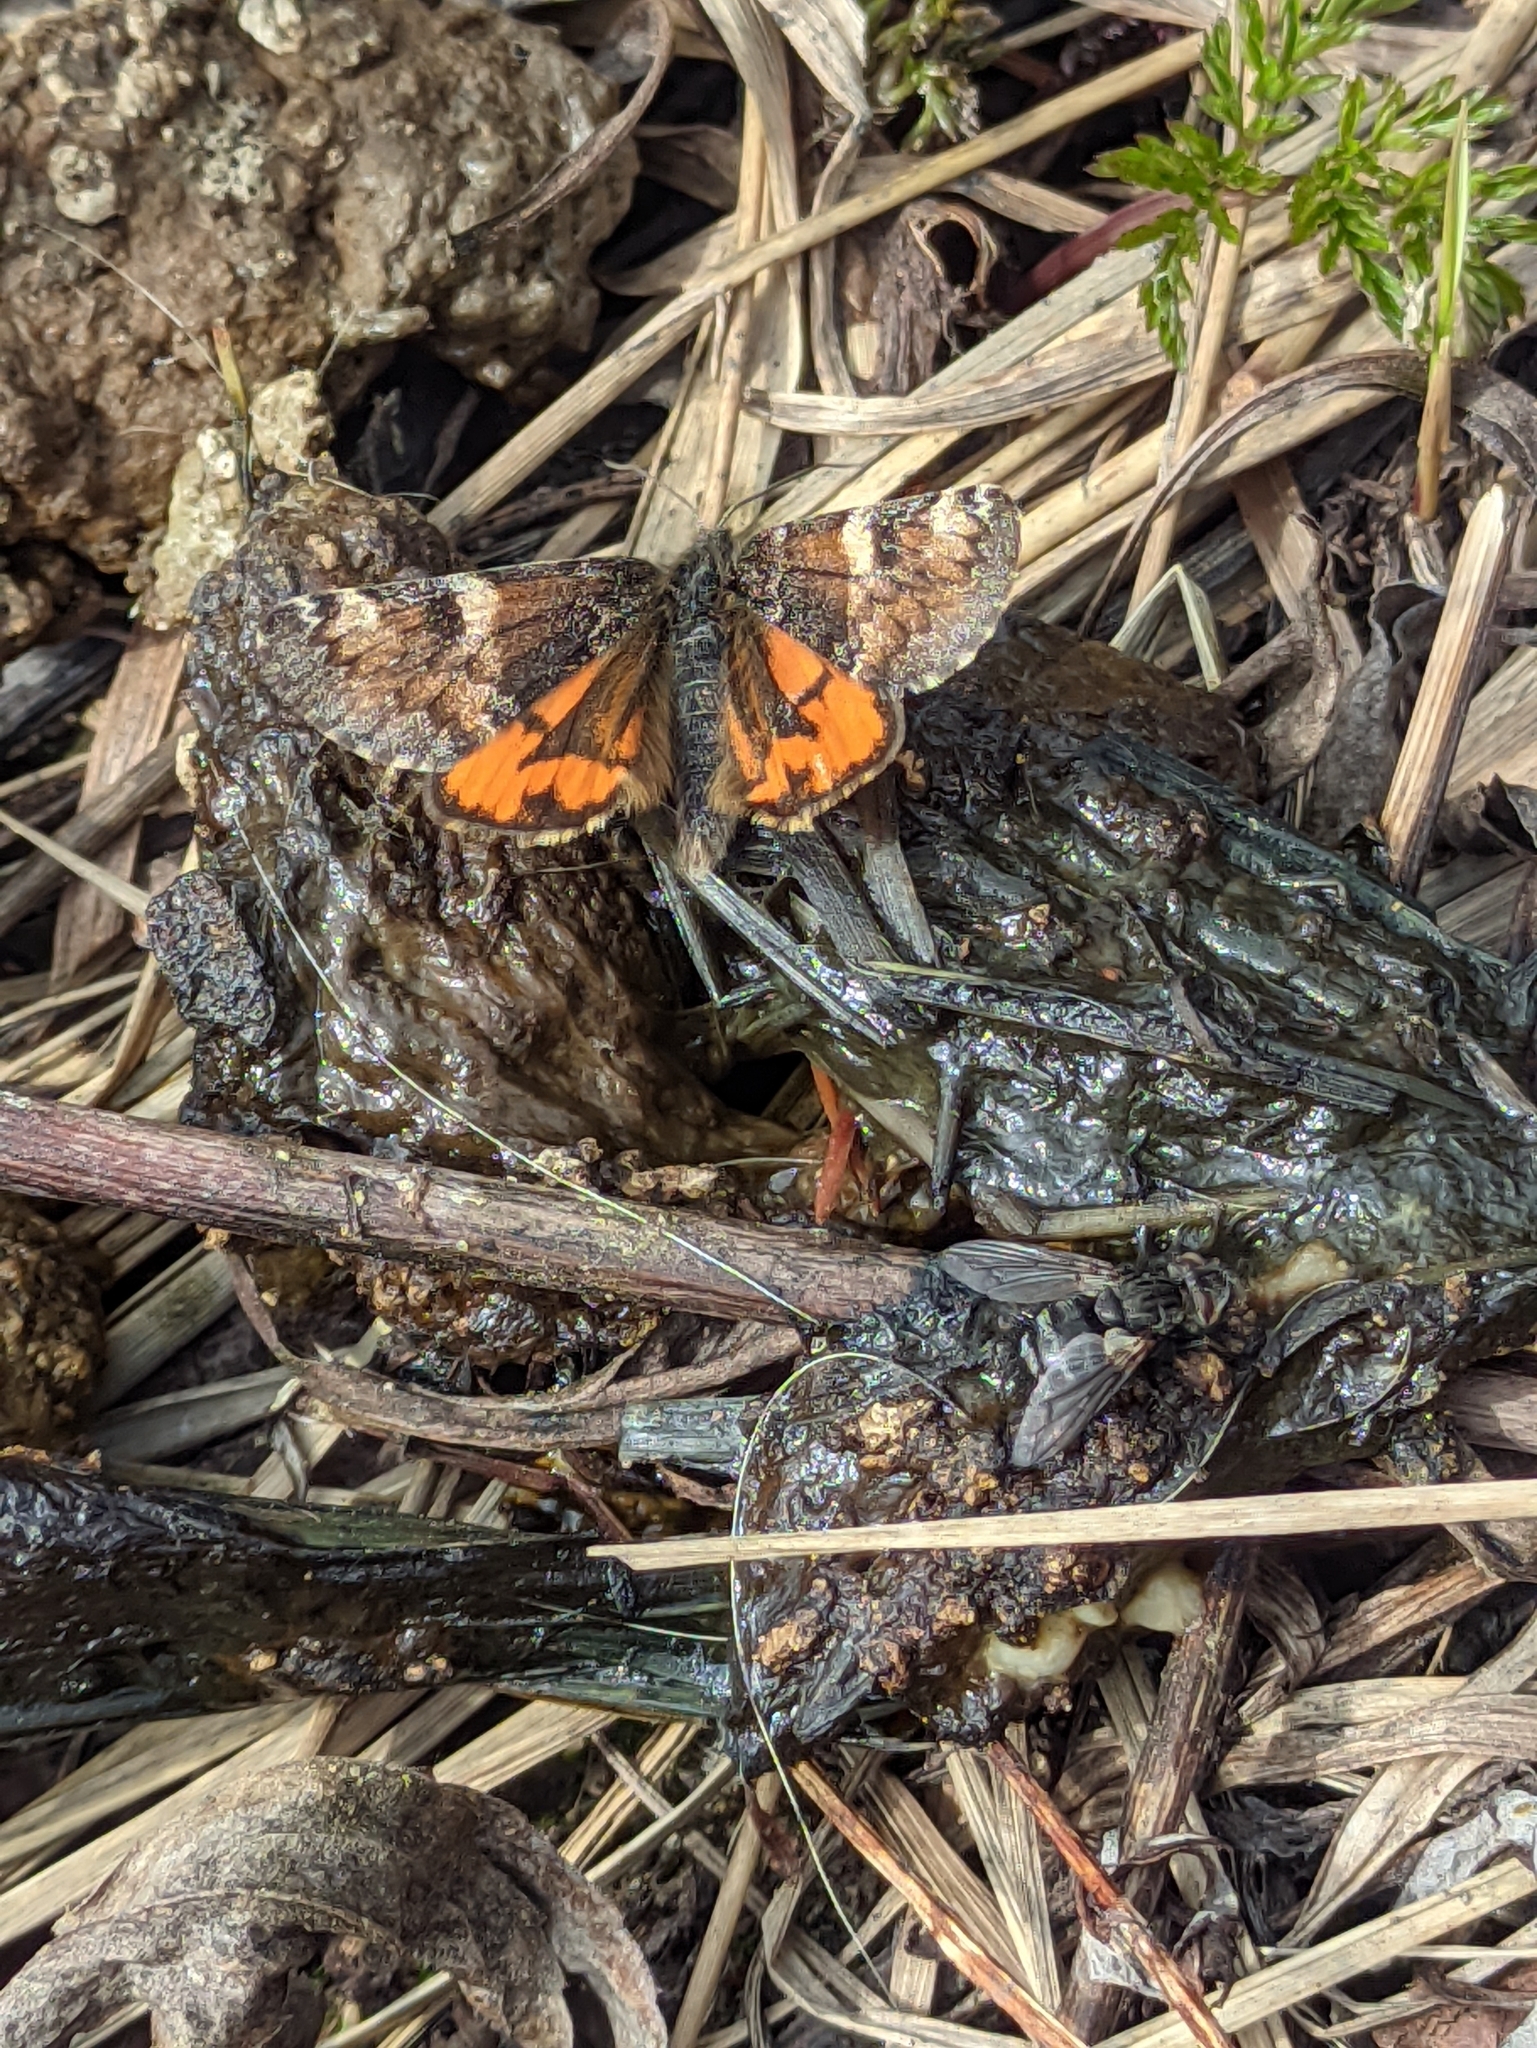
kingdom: Animalia
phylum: Arthropoda
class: Insecta
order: Lepidoptera
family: Geometridae
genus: Archiearis
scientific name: Archiearis parthenias
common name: Orange underwing
